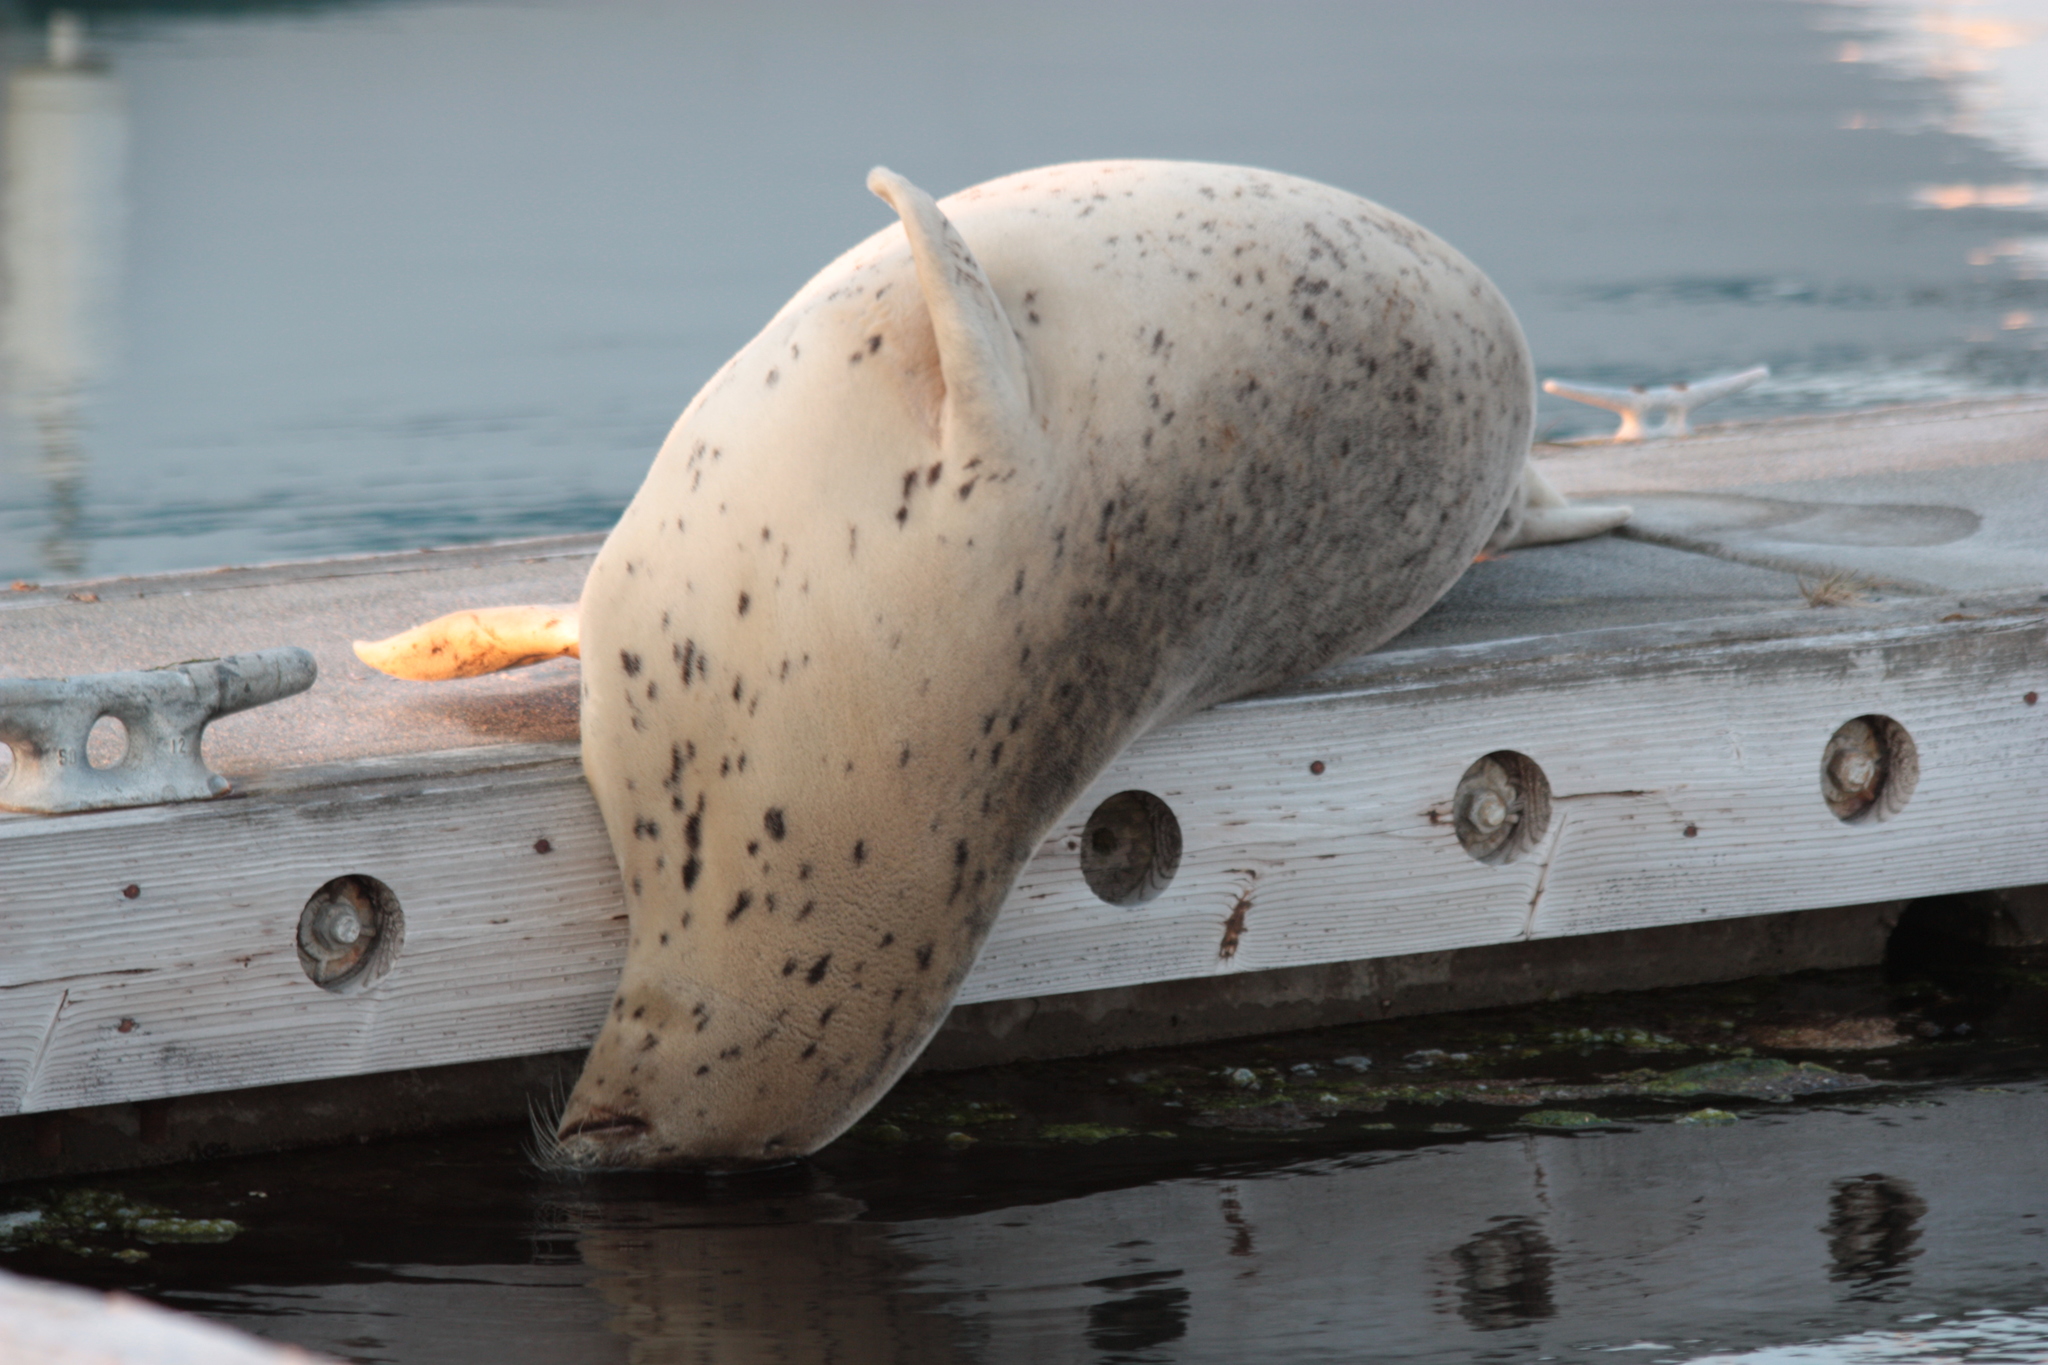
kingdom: Animalia
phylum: Chordata
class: Mammalia
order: Carnivora
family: Phocidae
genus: Phoca
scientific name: Phoca vitulina
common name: Harbor seal
